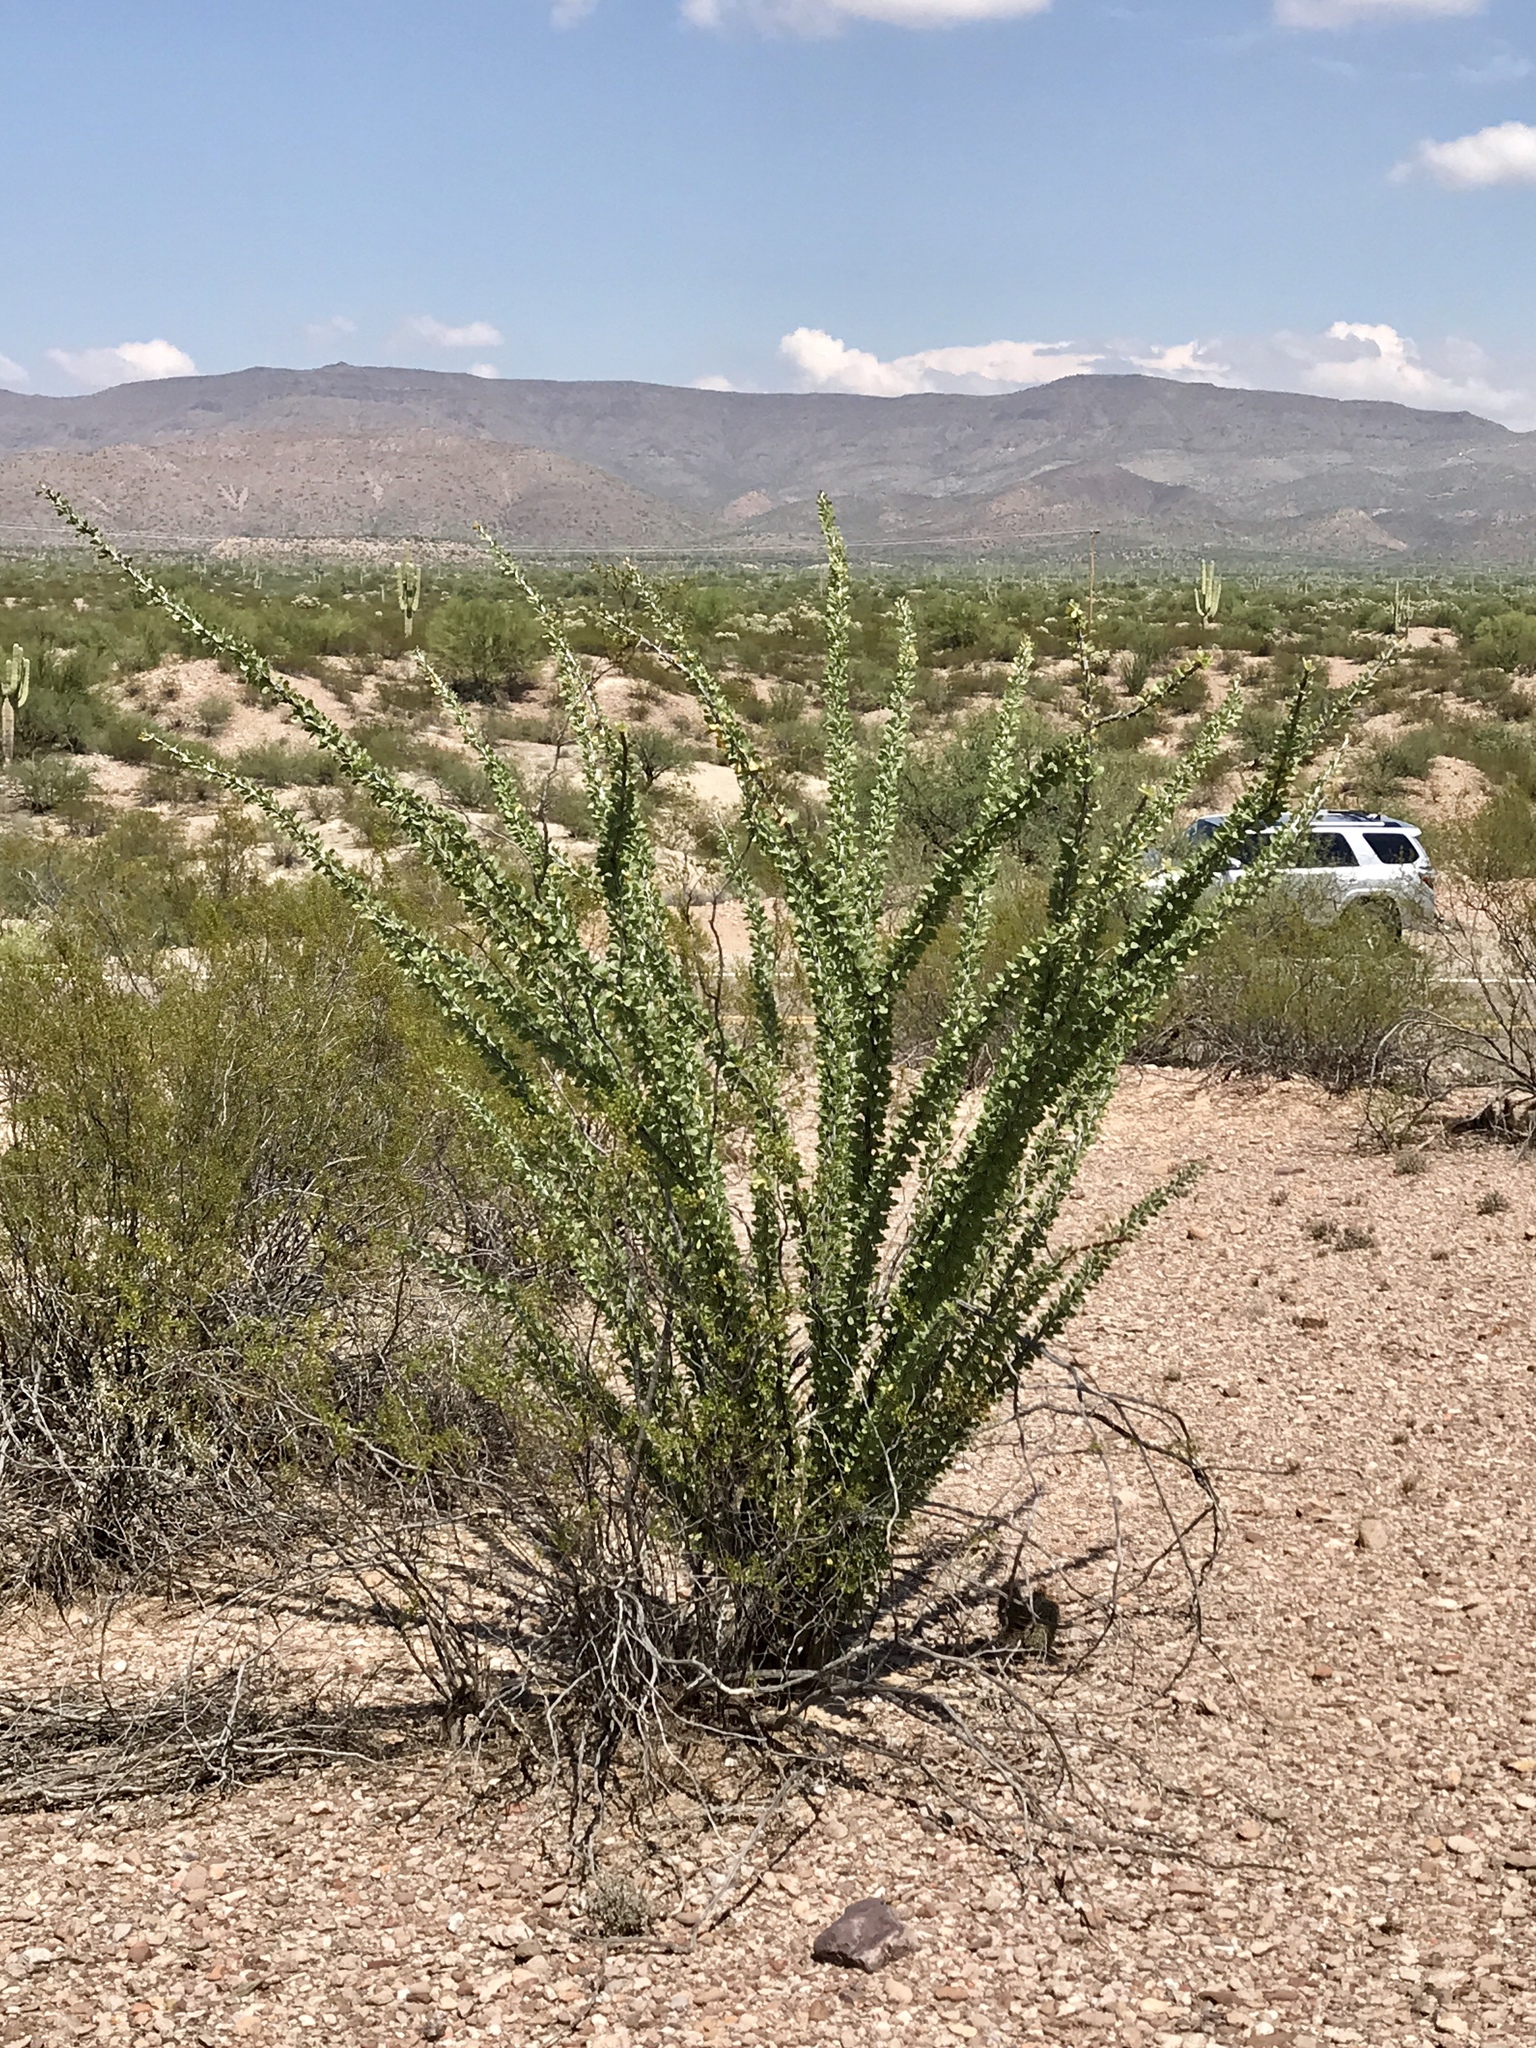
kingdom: Plantae
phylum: Tracheophyta
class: Magnoliopsida
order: Ericales
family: Fouquieriaceae
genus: Fouquieria
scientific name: Fouquieria splendens
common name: Vine-cactus
